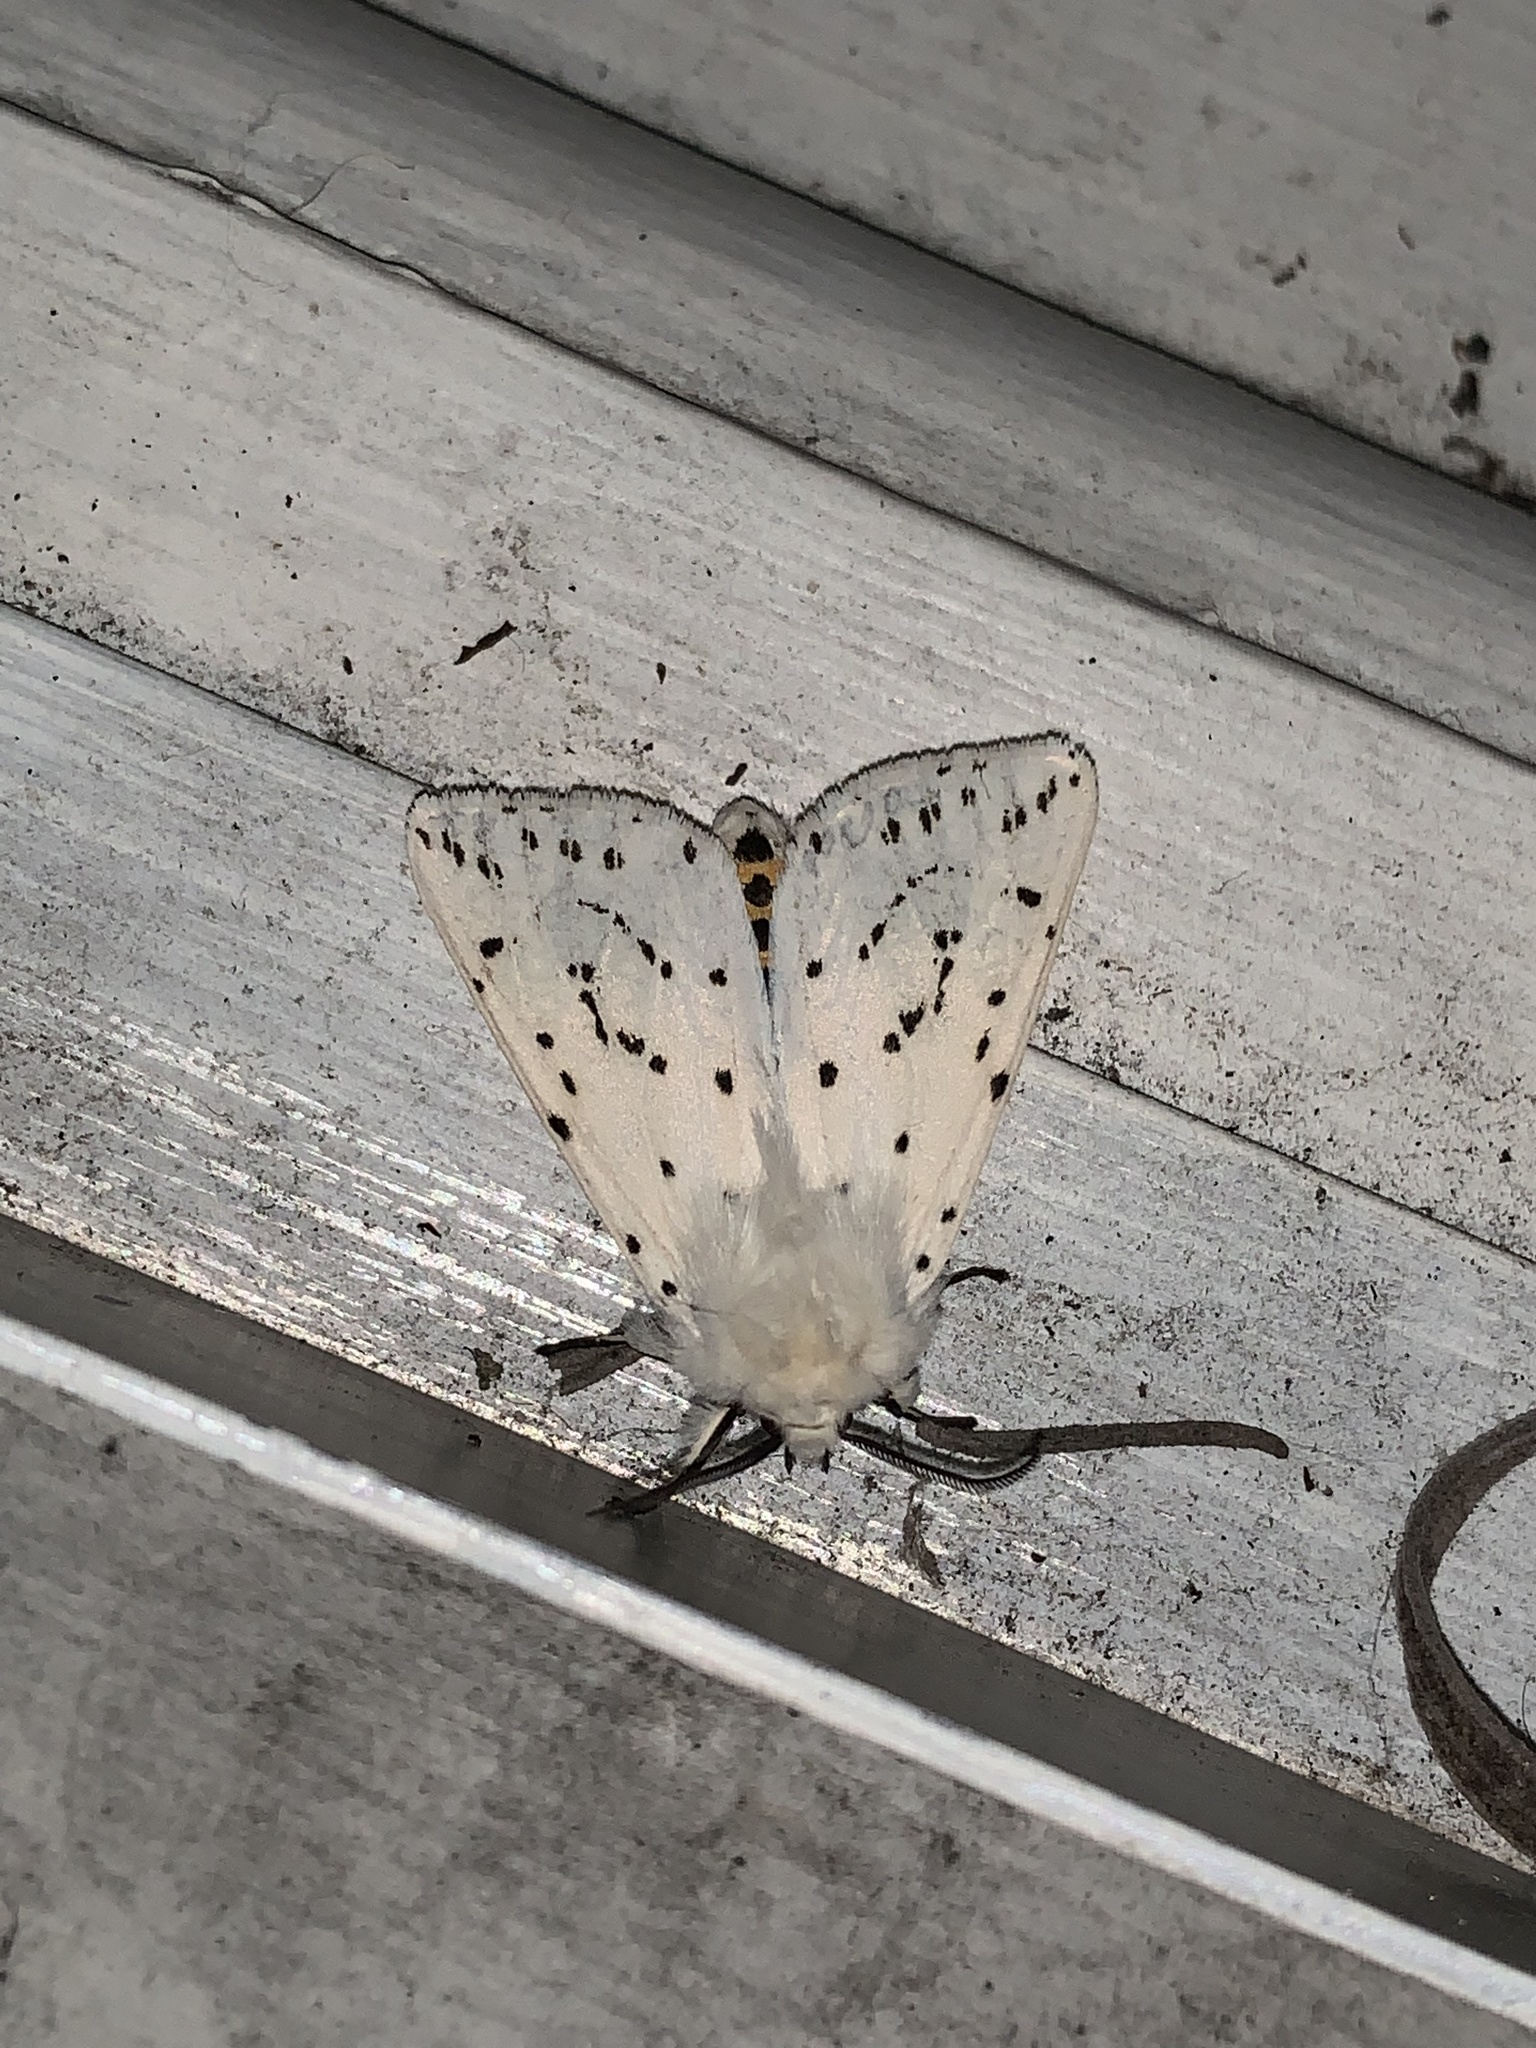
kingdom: Animalia
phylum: Arthropoda
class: Insecta
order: Lepidoptera
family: Erebidae
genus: Spilosoma
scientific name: Spilosoma lubricipeda
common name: White ermine
